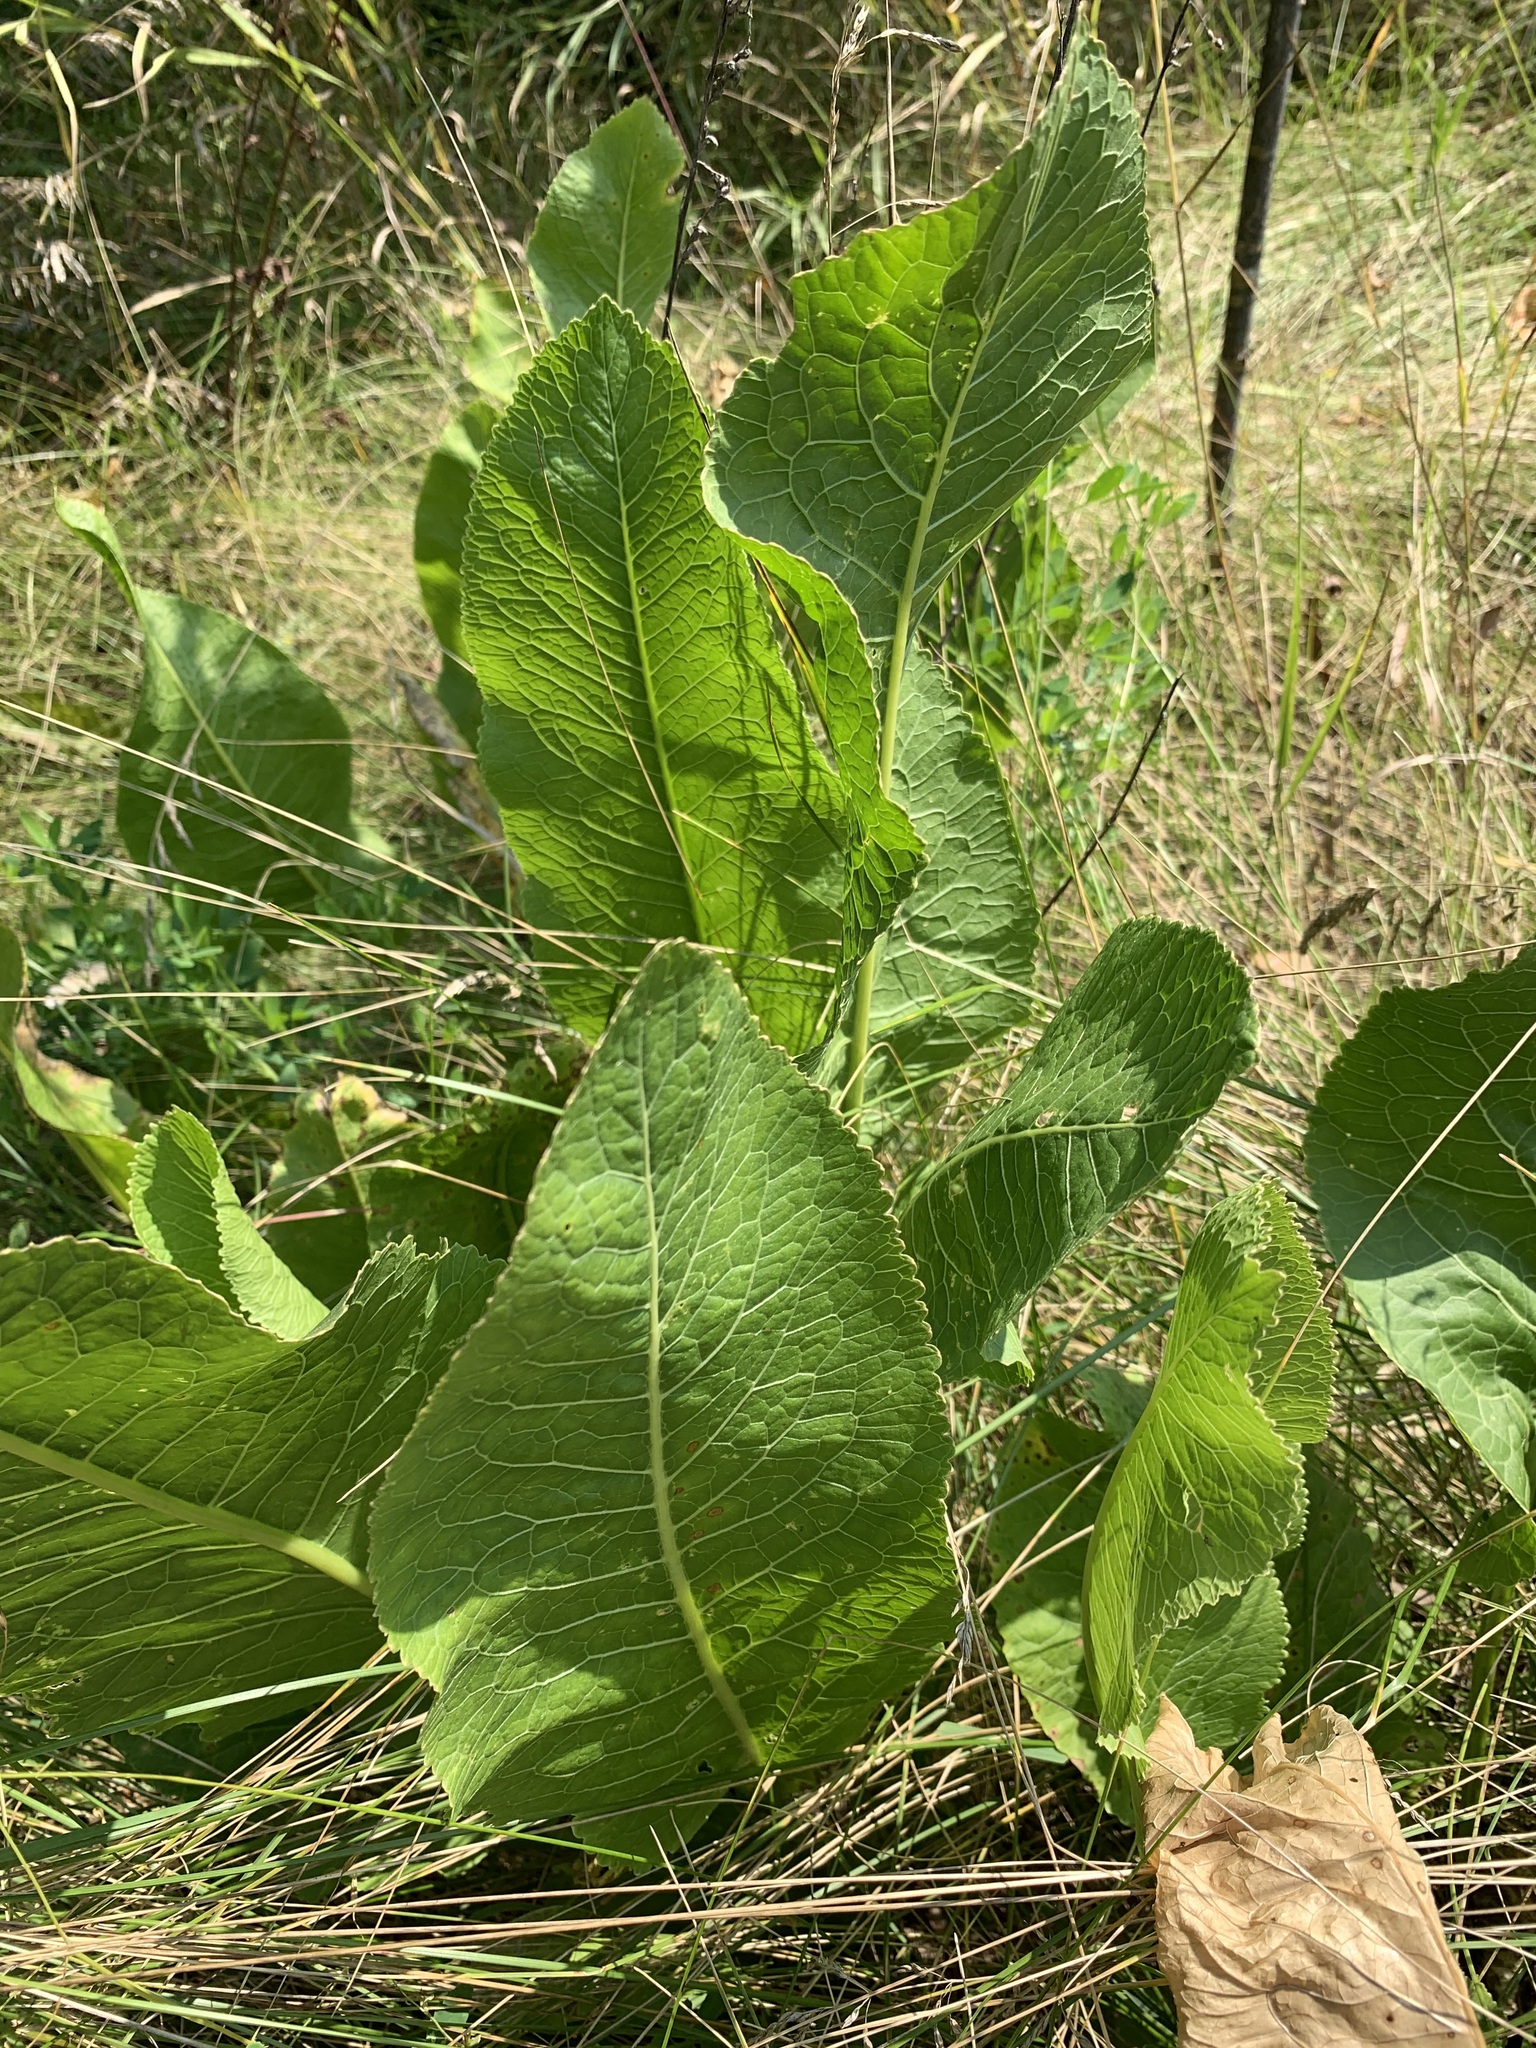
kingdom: Plantae
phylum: Tracheophyta
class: Magnoliopsida
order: Brassicales
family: Brassicaceae
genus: Armoracia
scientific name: Armoracia rusticana
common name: Horseradish
